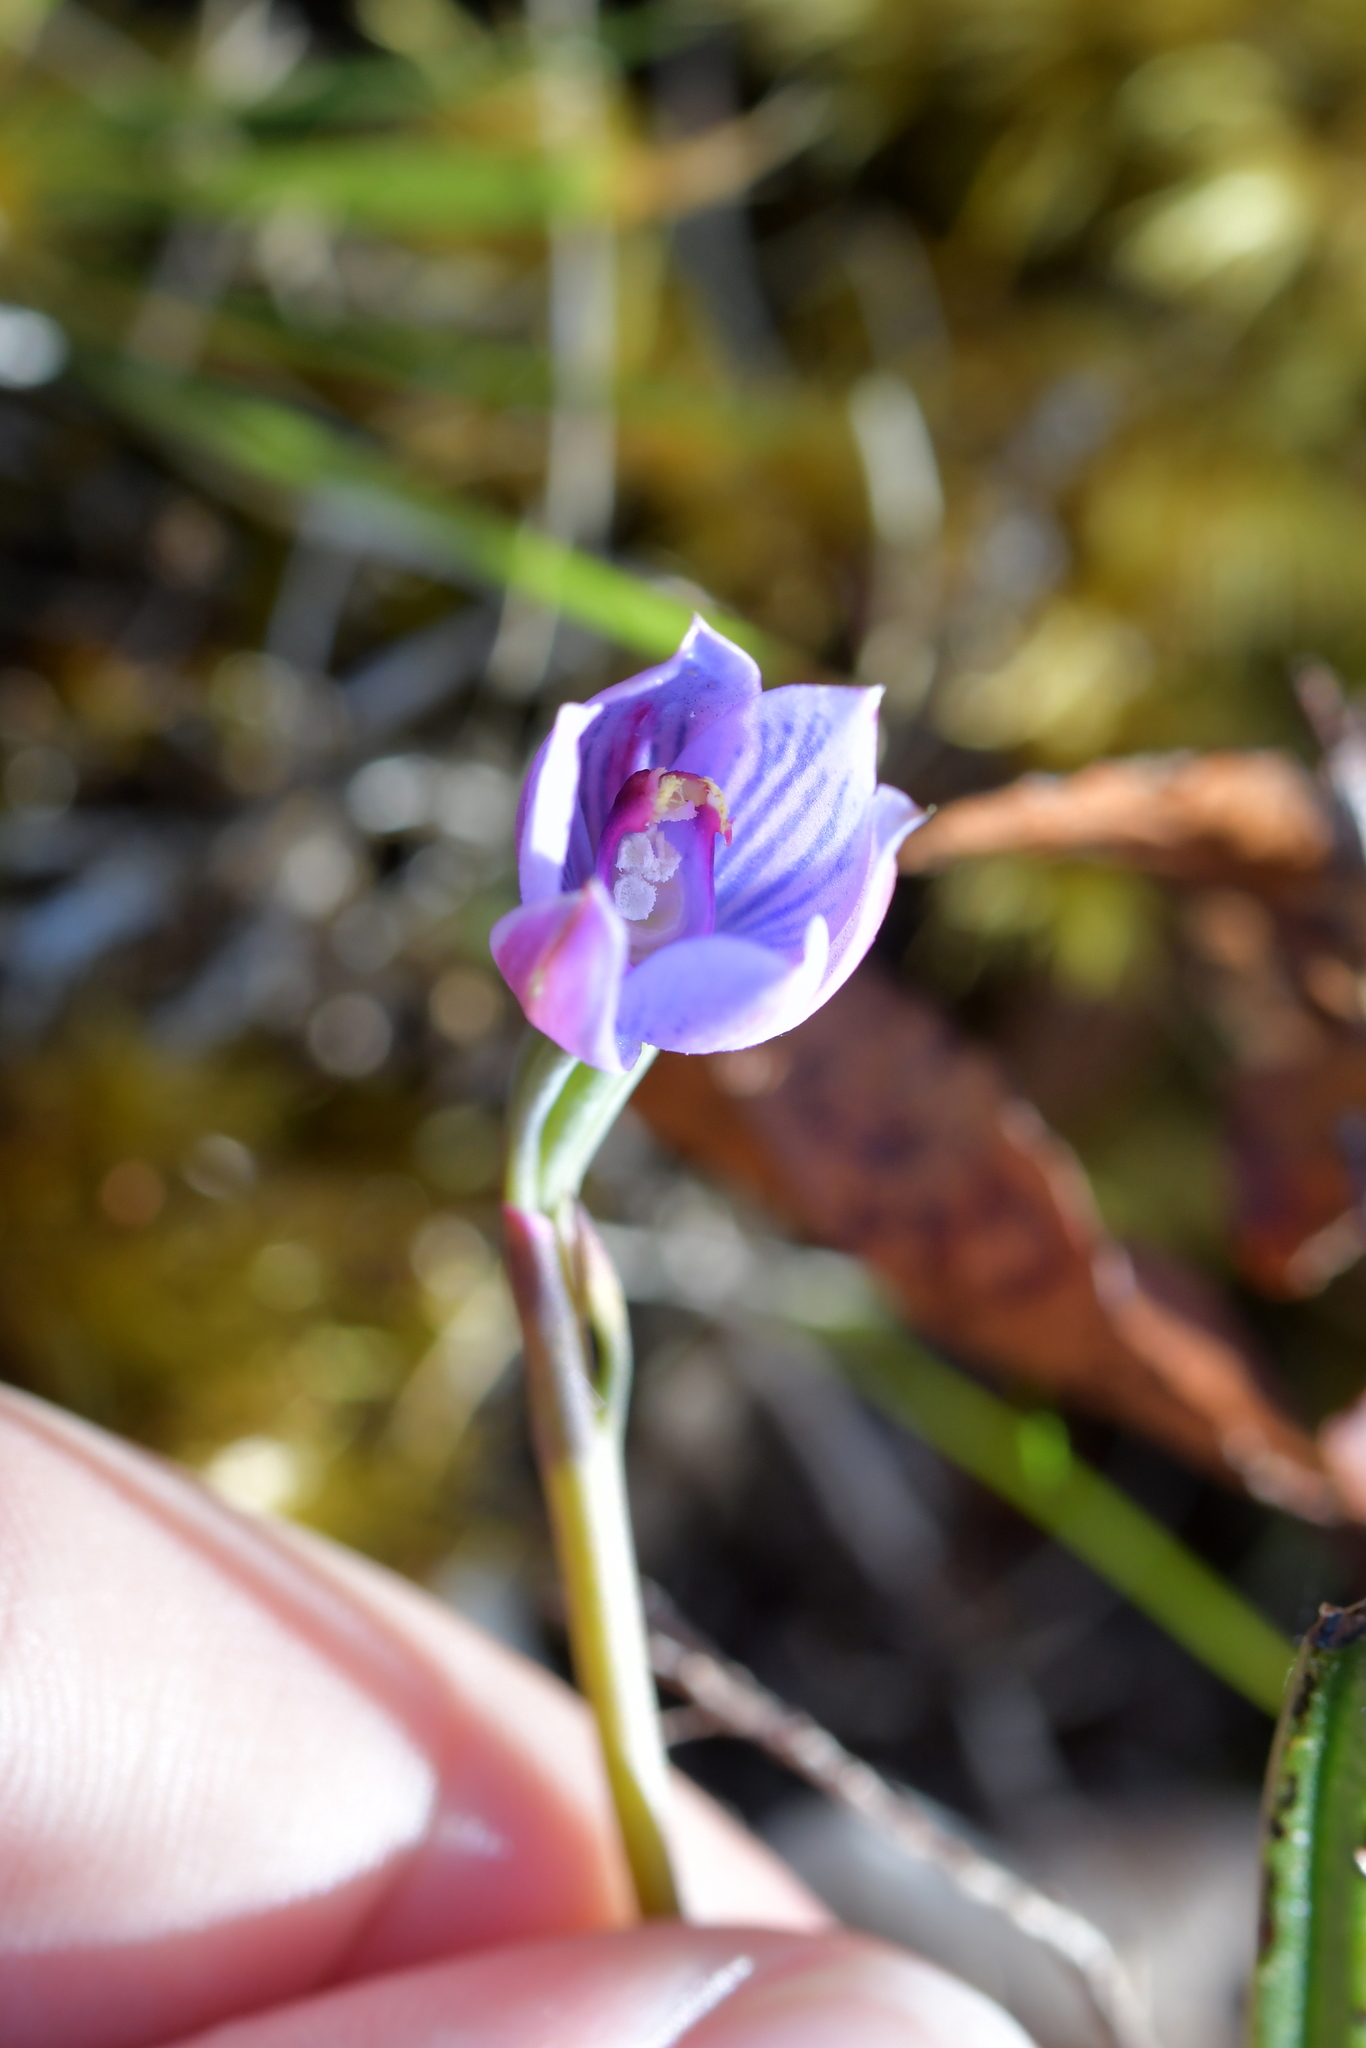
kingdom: Plantae
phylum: Tracheophyta
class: Liliopsida
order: Asparagales
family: Orchidaceae
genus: Thelymitra
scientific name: Thelymitra pulchella
